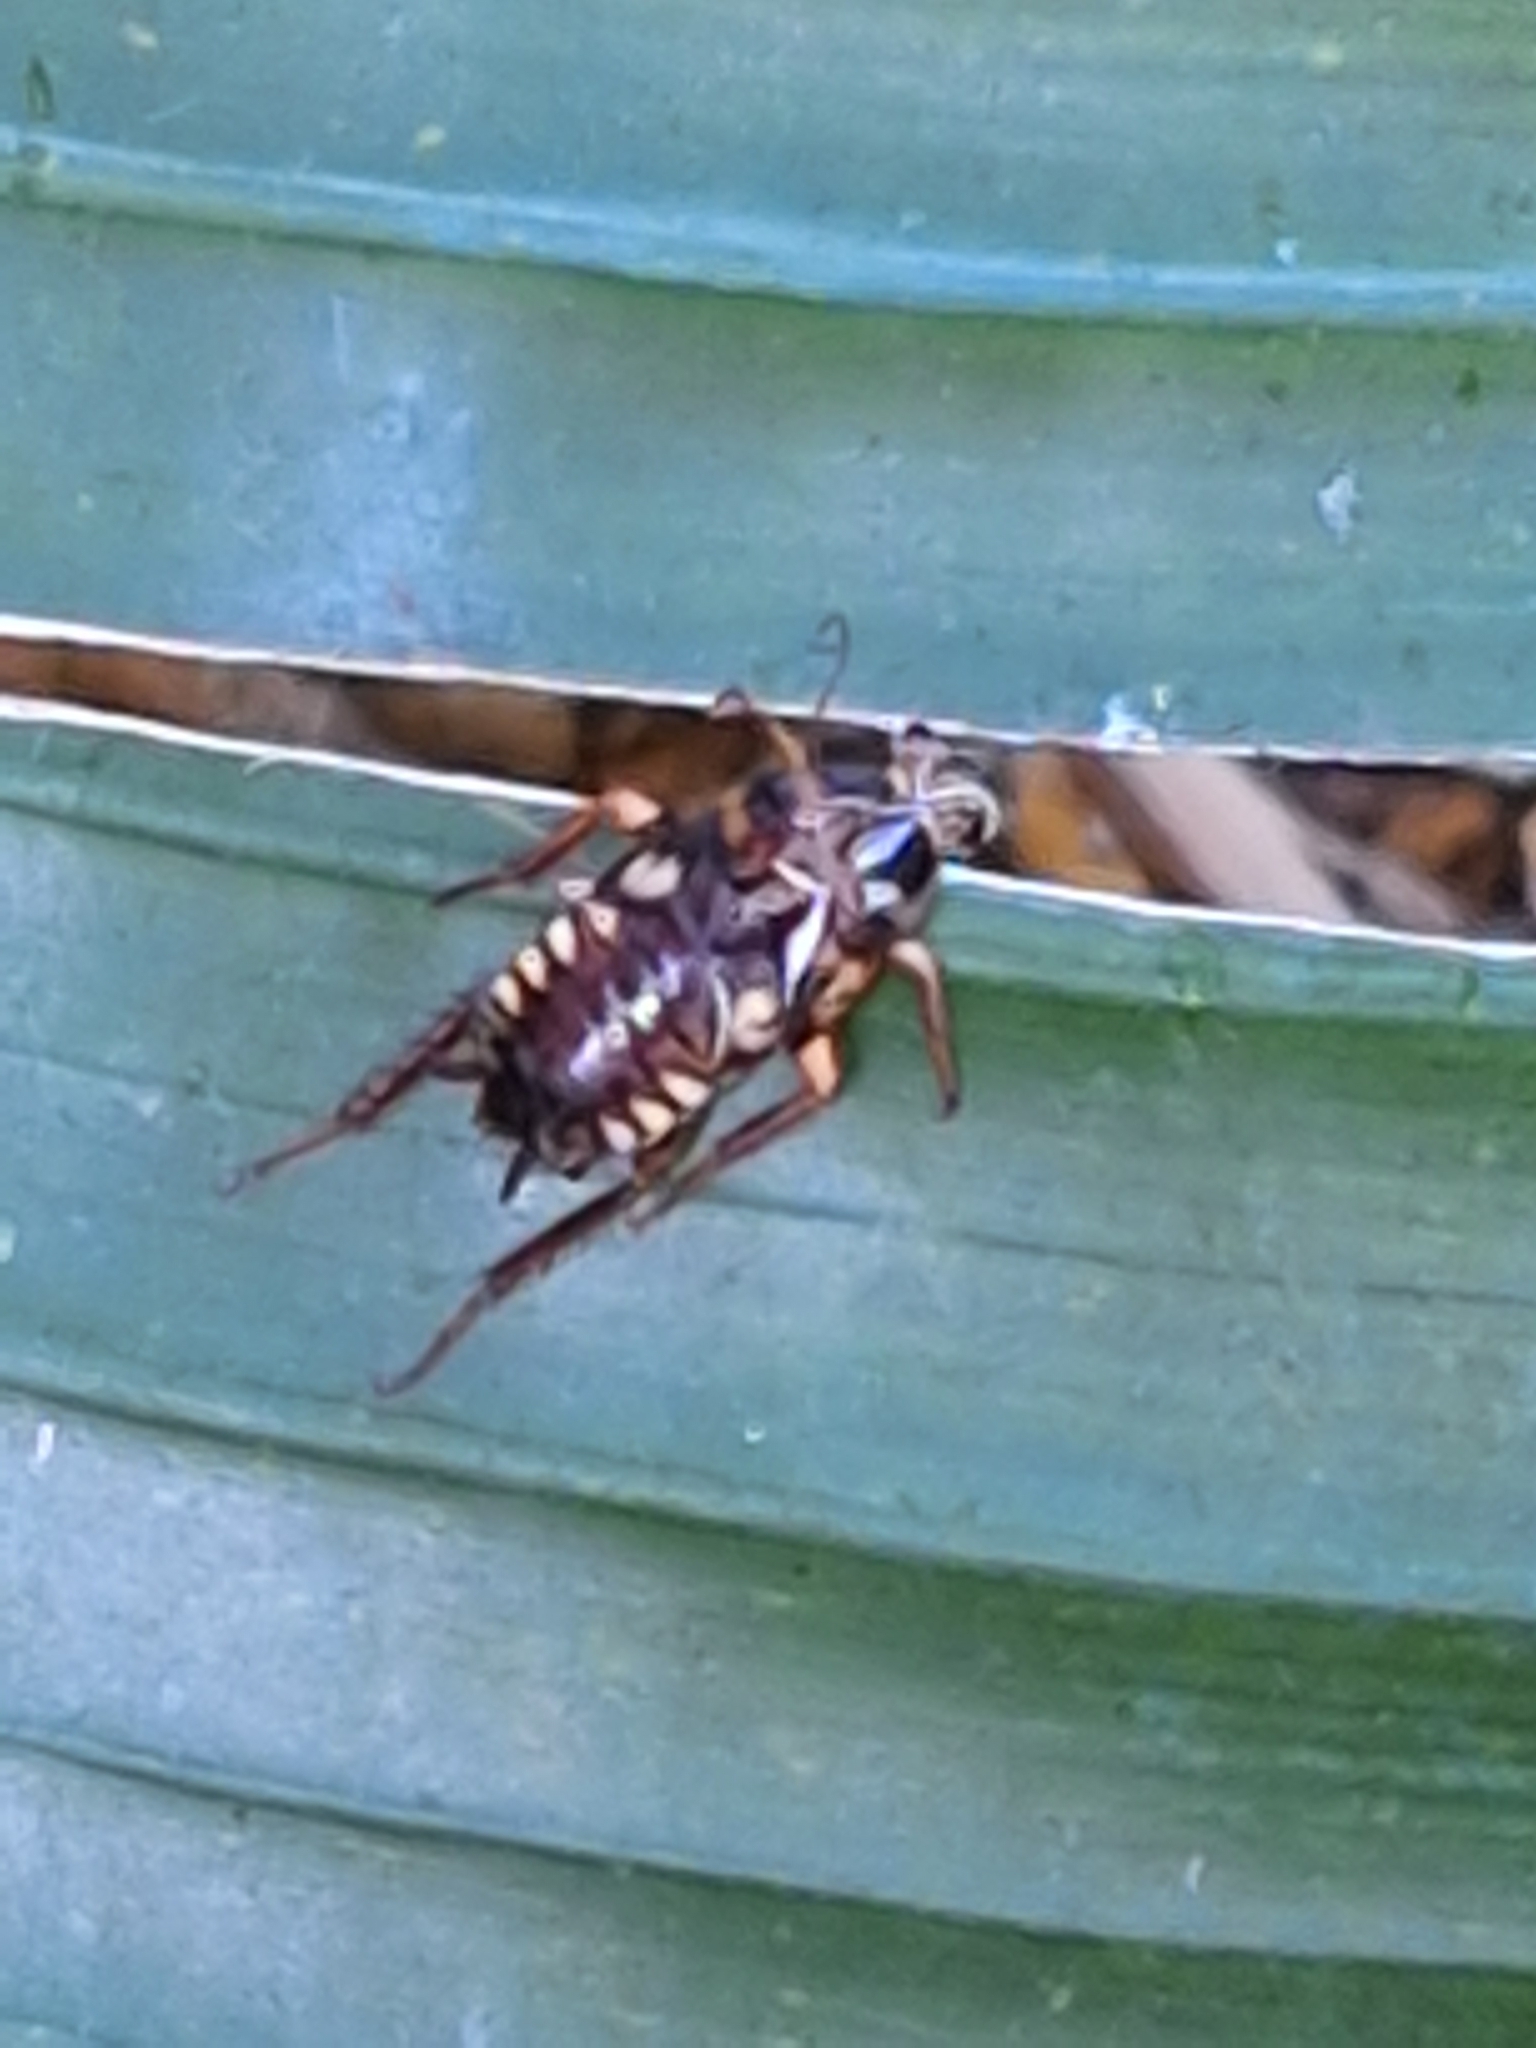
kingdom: Animalia
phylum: Arthropoda
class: Insecta
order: Blattodea
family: Blattidae
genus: Periplaneta
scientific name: Periplaneta australasiae
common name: Australian cockroach
